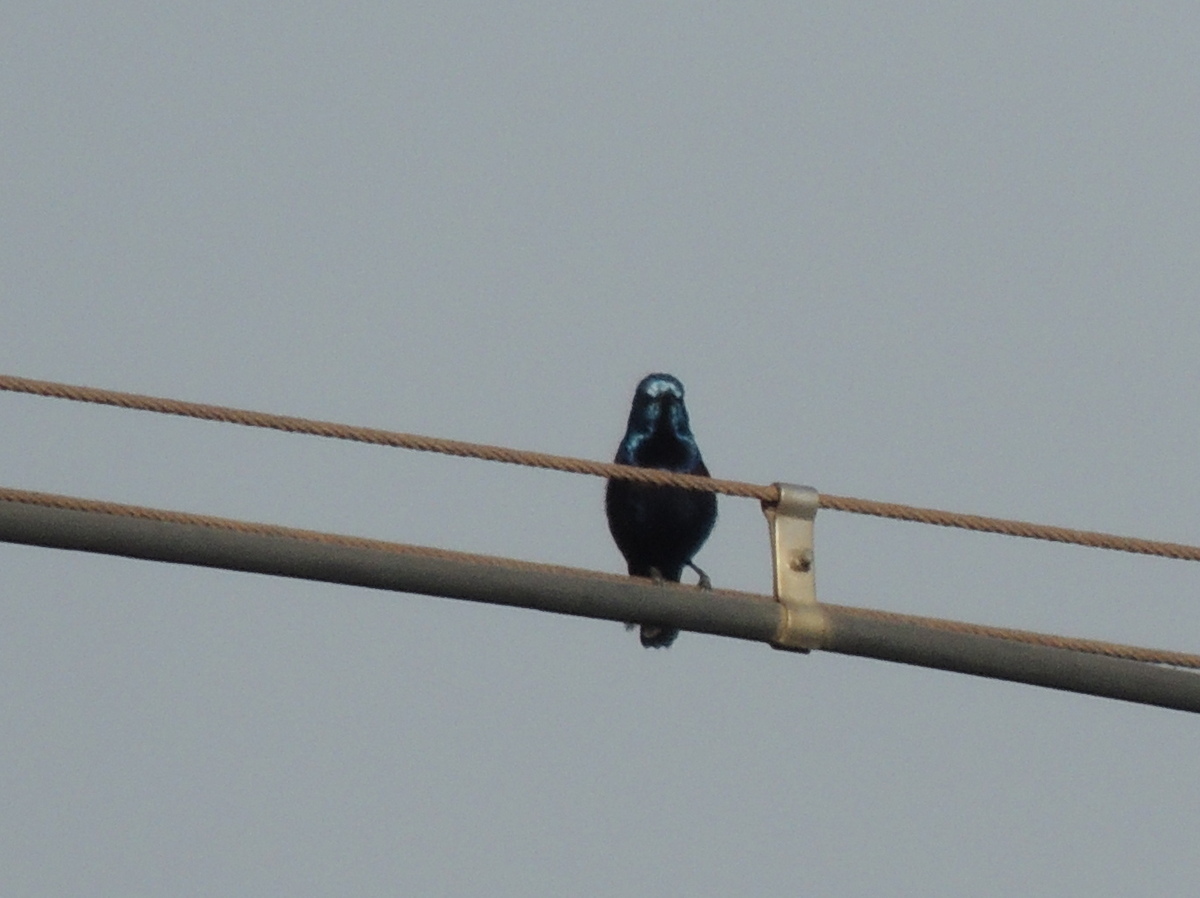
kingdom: Animalia
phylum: Chordata
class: Aves
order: Passeriformes
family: Nectariniidae
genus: Cinnyris
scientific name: Cinnyris asiaticus
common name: Purple sunbird
